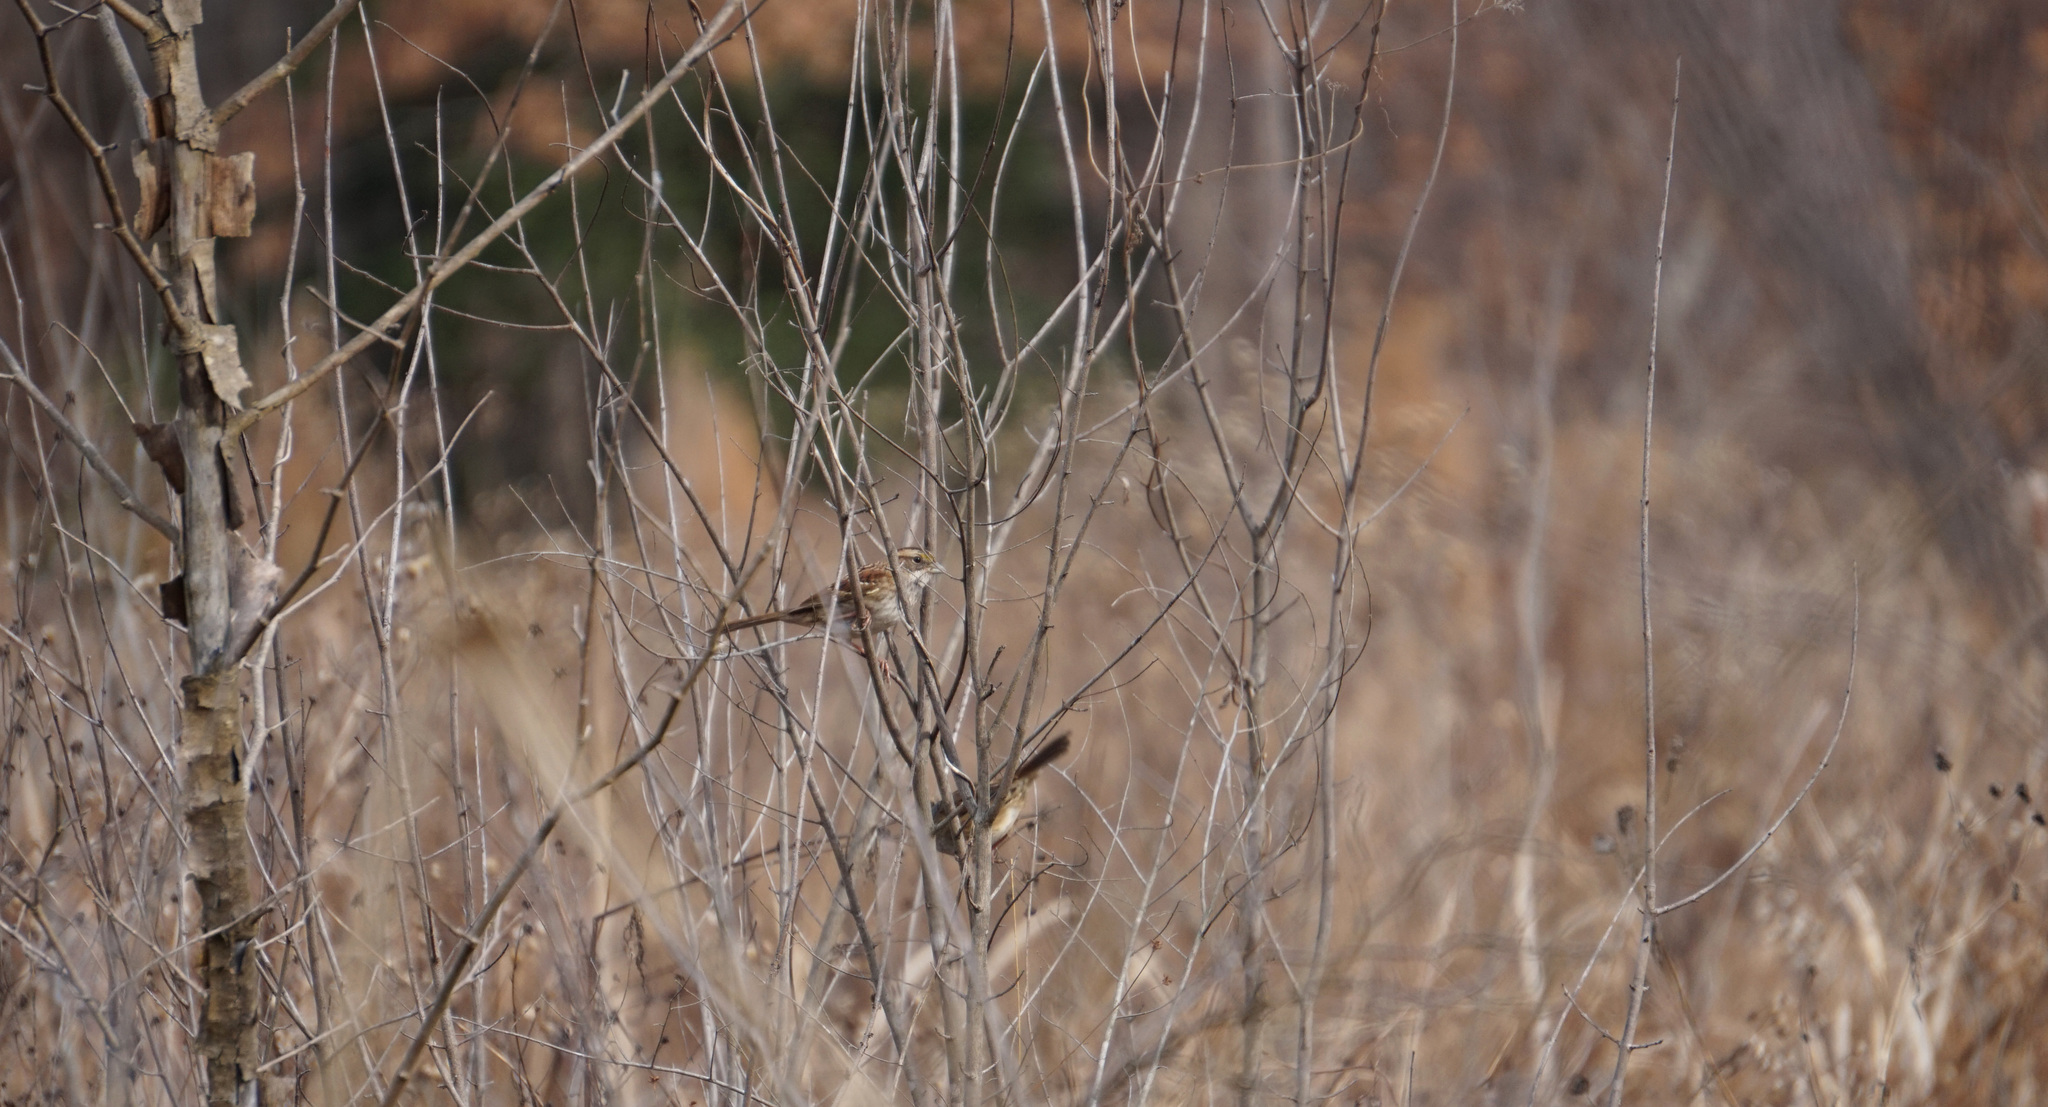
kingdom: Animalia
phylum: Chordata
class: Aves
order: Passeriformes
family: Passerellidae
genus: Zonotrichia
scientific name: Zonotrichia albicollis
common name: White-throated sparrow
